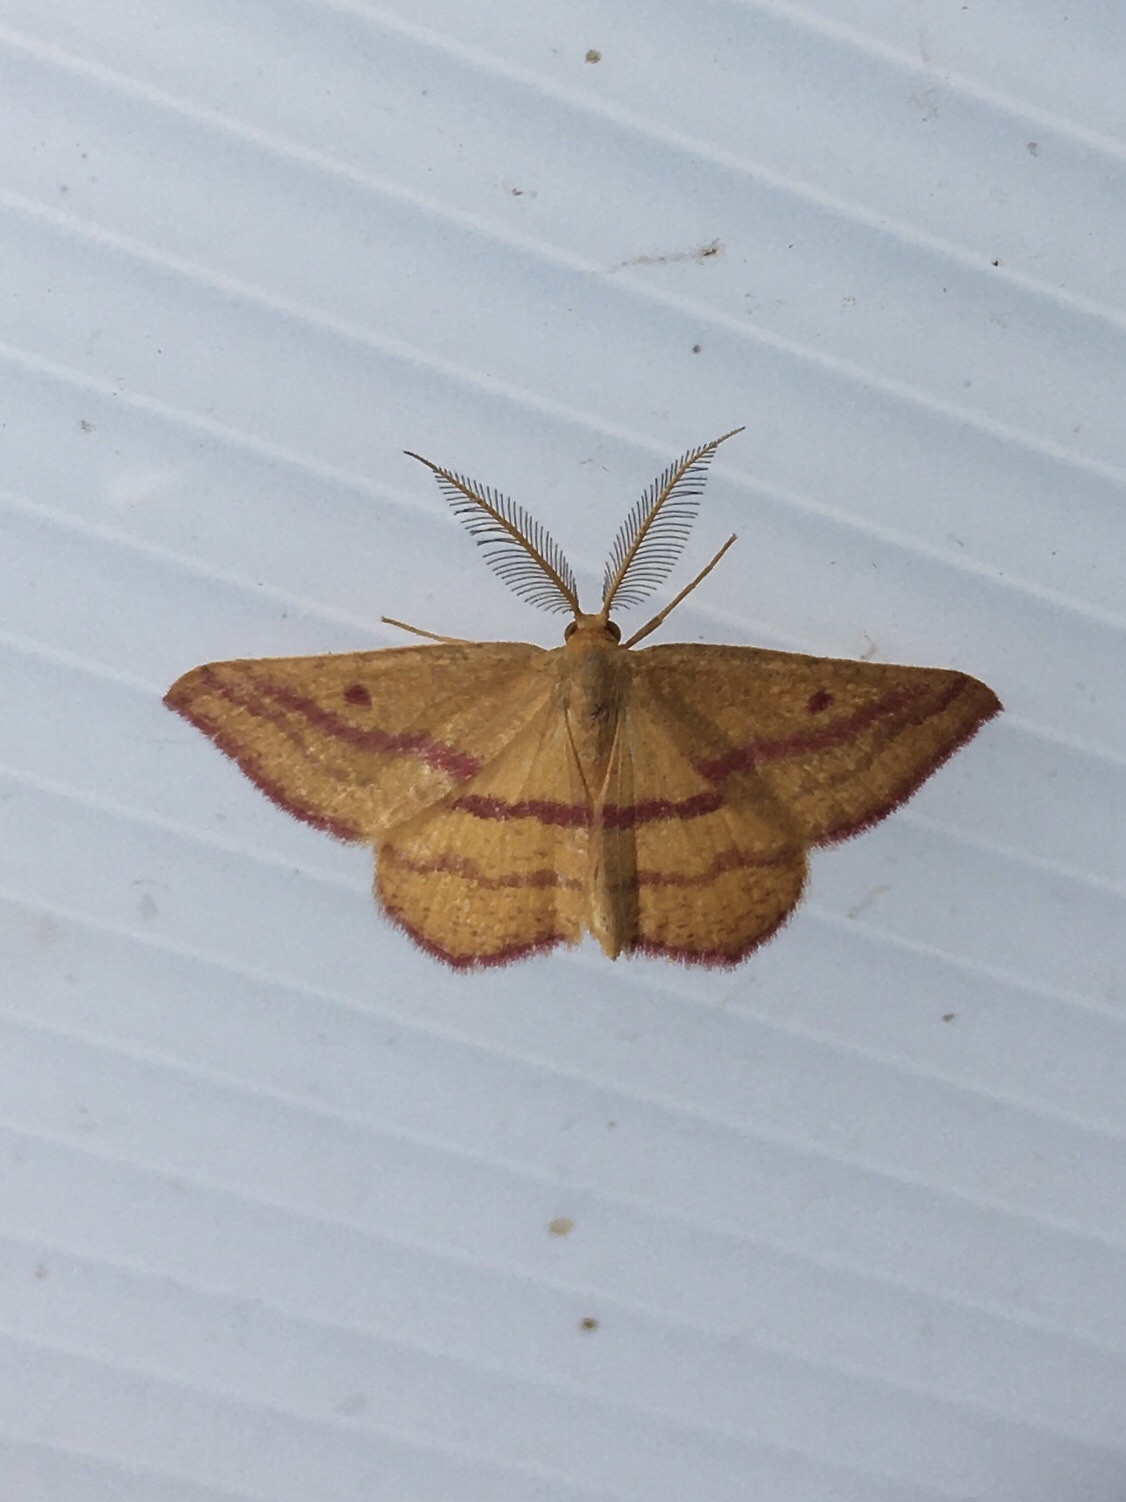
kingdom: Animalia
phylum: Arthropoda
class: Insecta
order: Lepidoptera
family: Geometridae
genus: Haematopis
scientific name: Haematopis grataria
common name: Chickweed geometer
